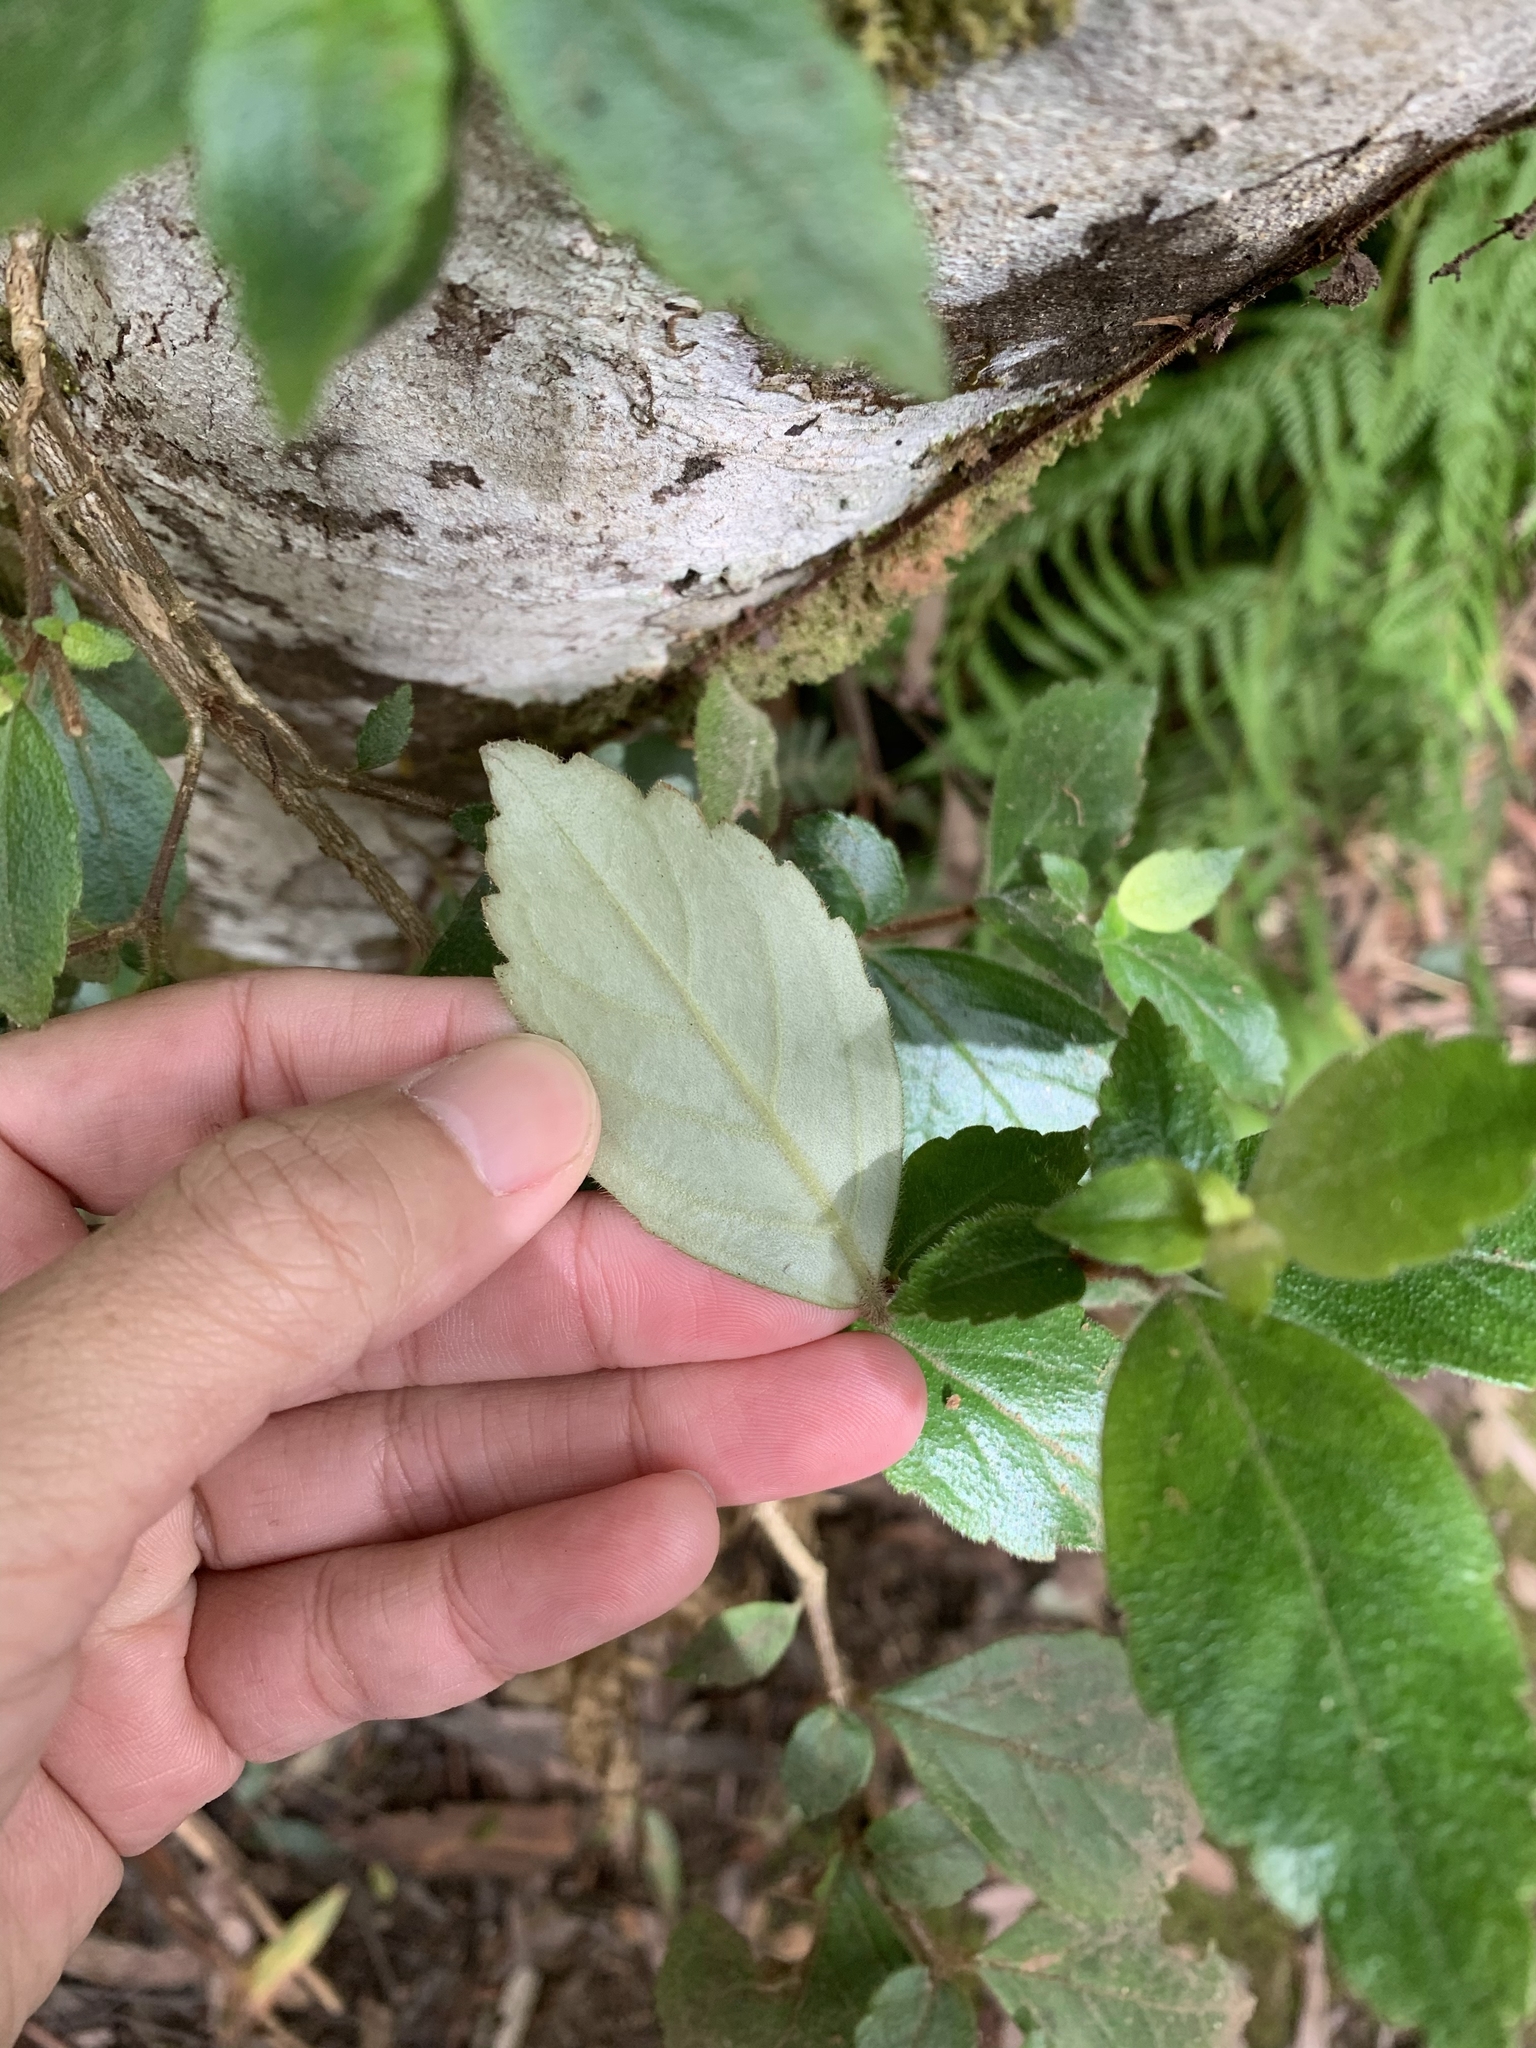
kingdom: Plantae
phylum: Tracheophyta
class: Magnoliopsida
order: Lamiales
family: Gesneriaceae
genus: Fieldia
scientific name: Fieldia australis
